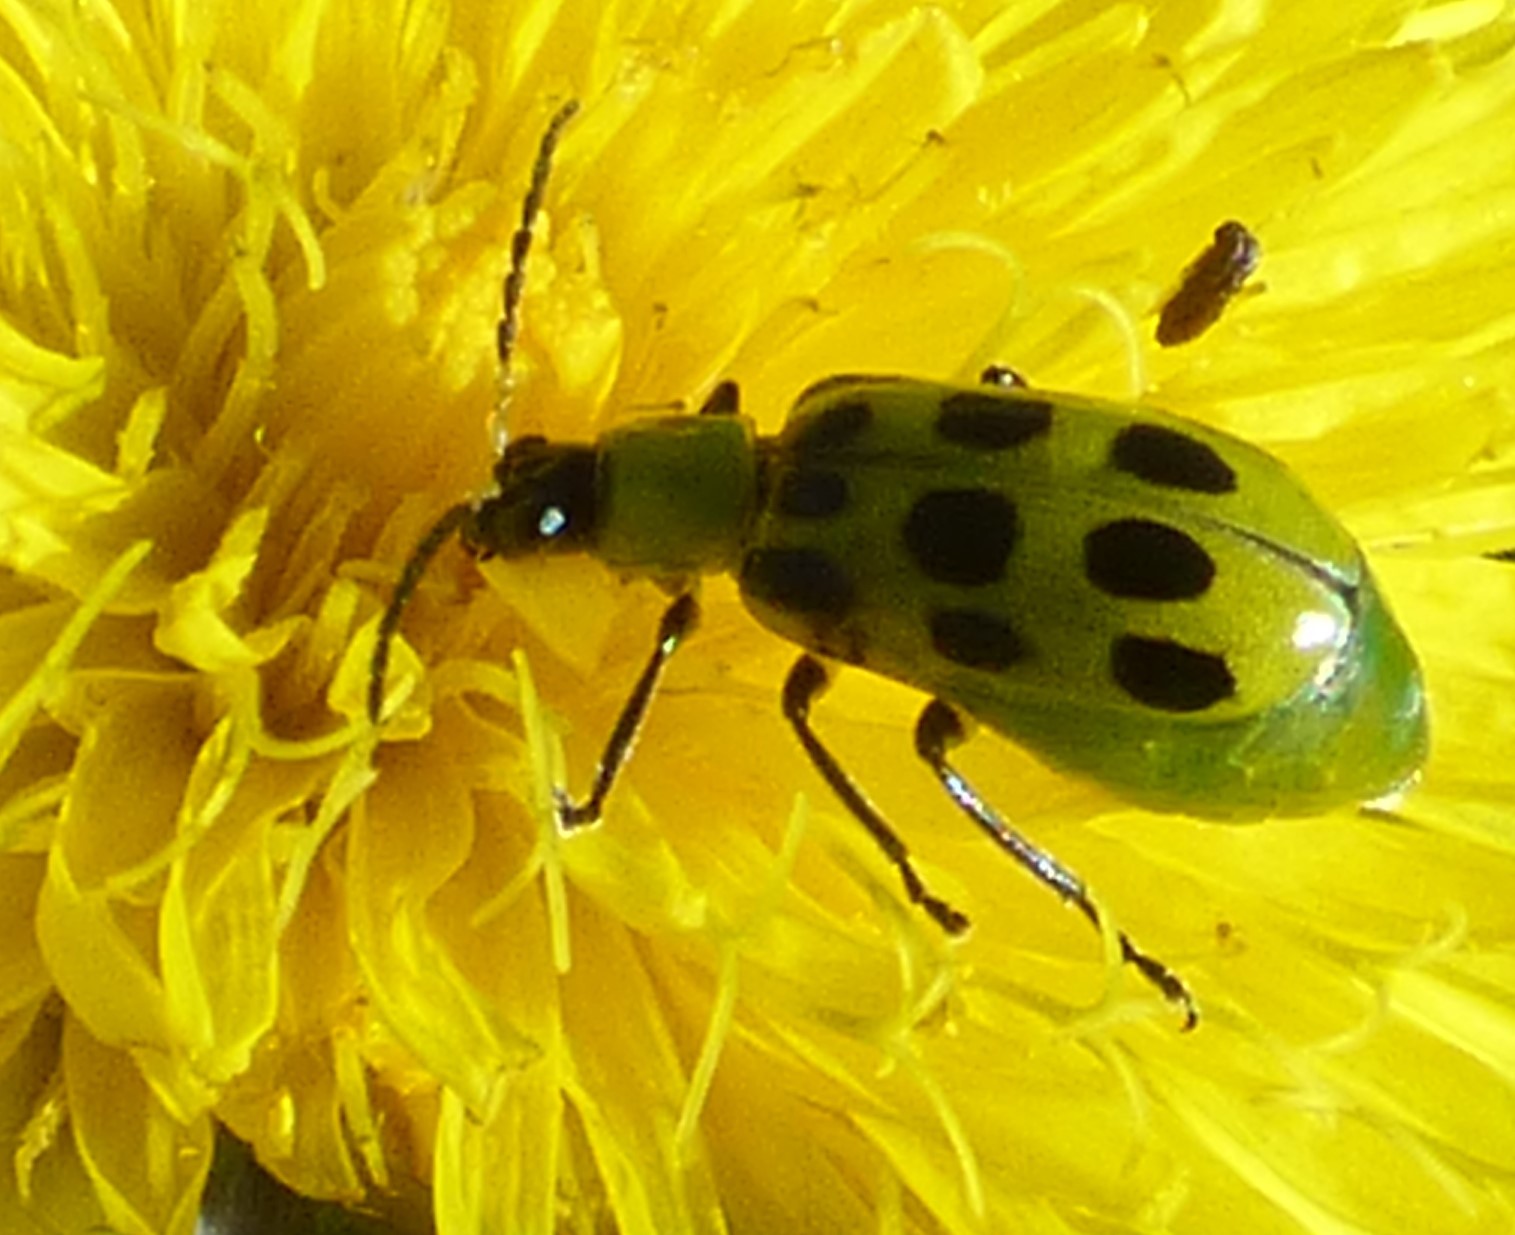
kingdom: Animalia
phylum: Arthropoda
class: Insecta
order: Coleoptera
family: Chrysomelidae
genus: Diabrotica
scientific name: Diabrotica undecimpunctata
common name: Spotted cucumber beetle
